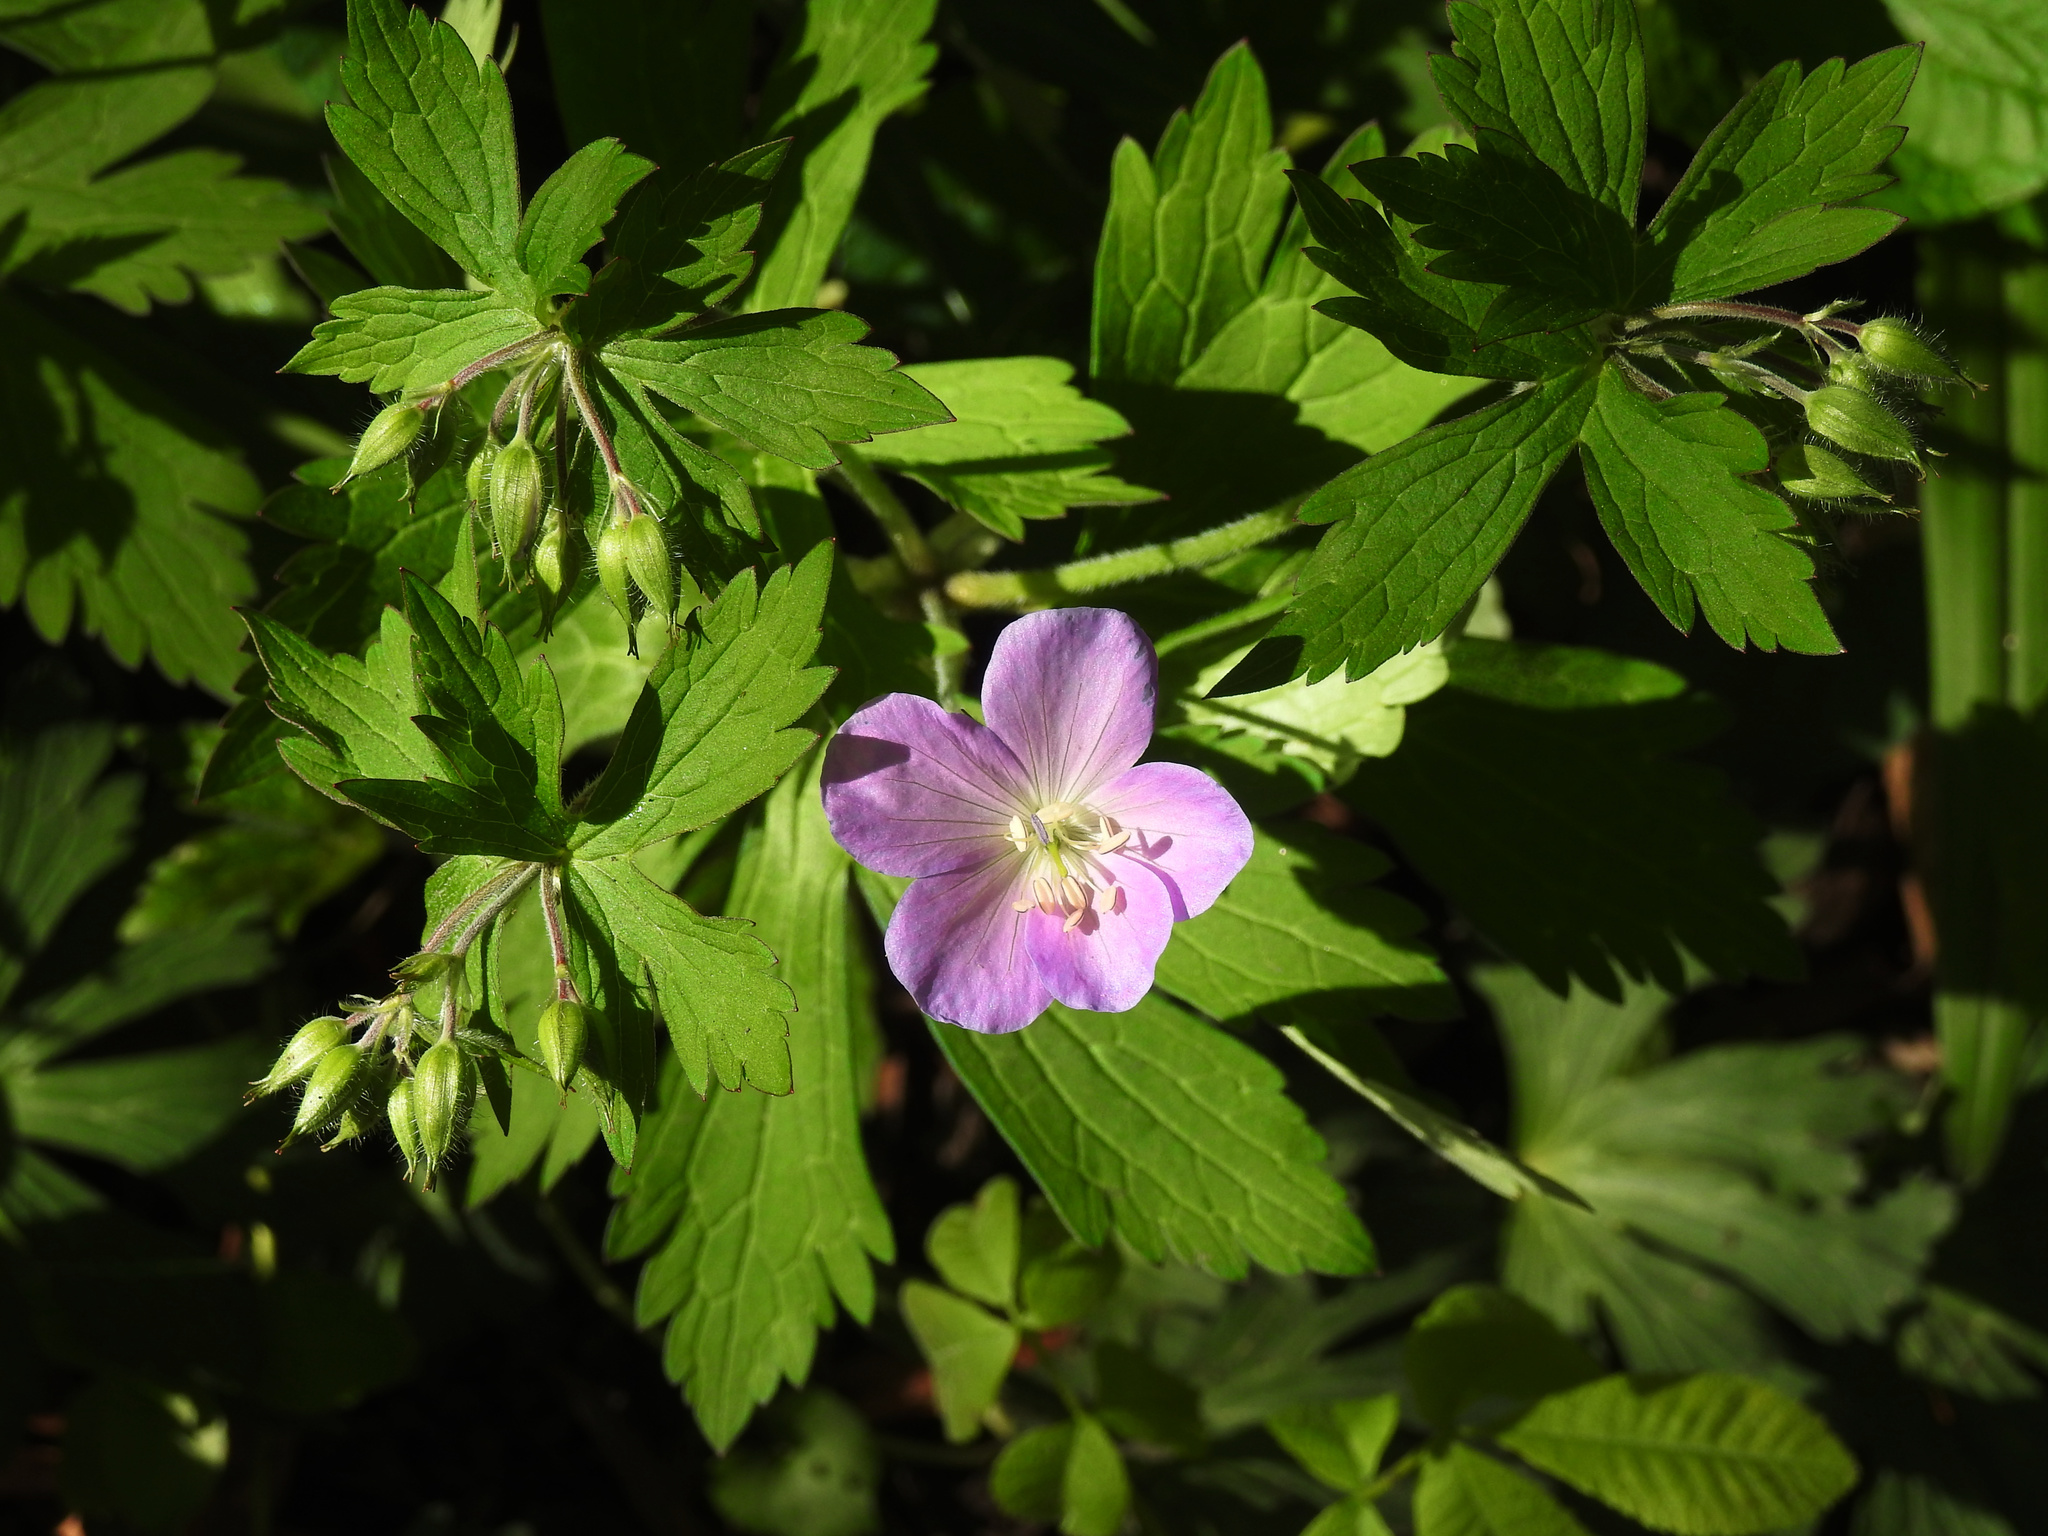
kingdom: Plantae
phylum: Tracheophyta
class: Magnoliopsida
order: Geraniales
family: Geraniaceae
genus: Geranium
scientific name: Geranium maculatum
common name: Spotted geranium
